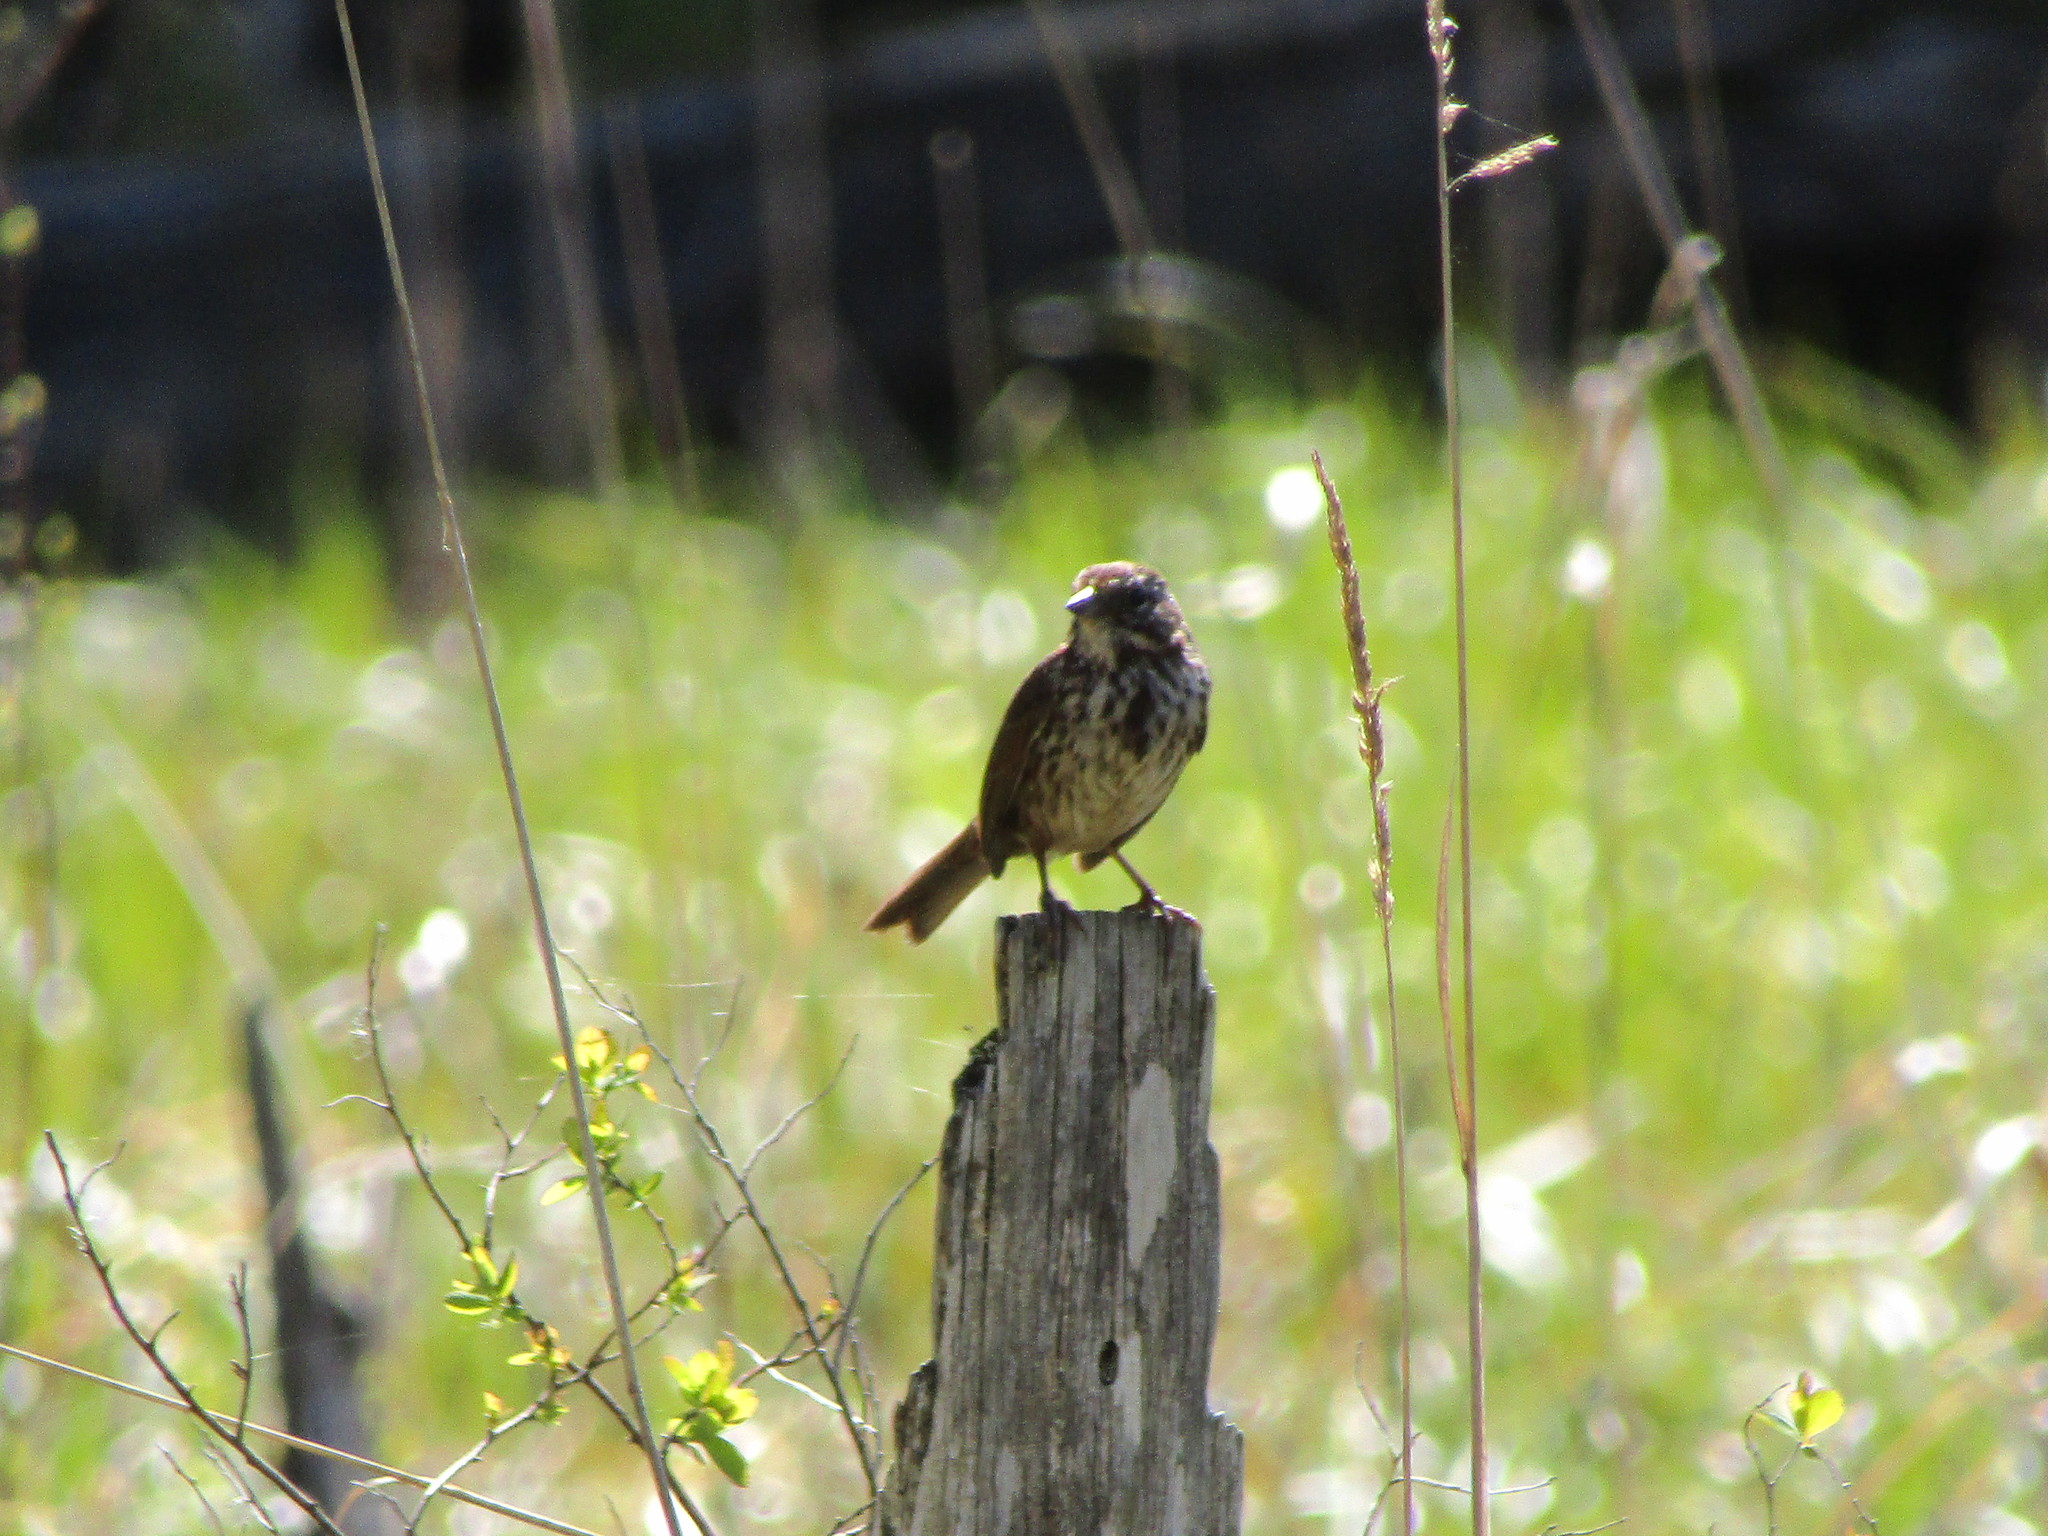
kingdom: Animalia
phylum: Chordata
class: Aves
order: Passeriformes
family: Passerellidae
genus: Melospiza
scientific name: Melospiza melodia
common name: Song sparrow
